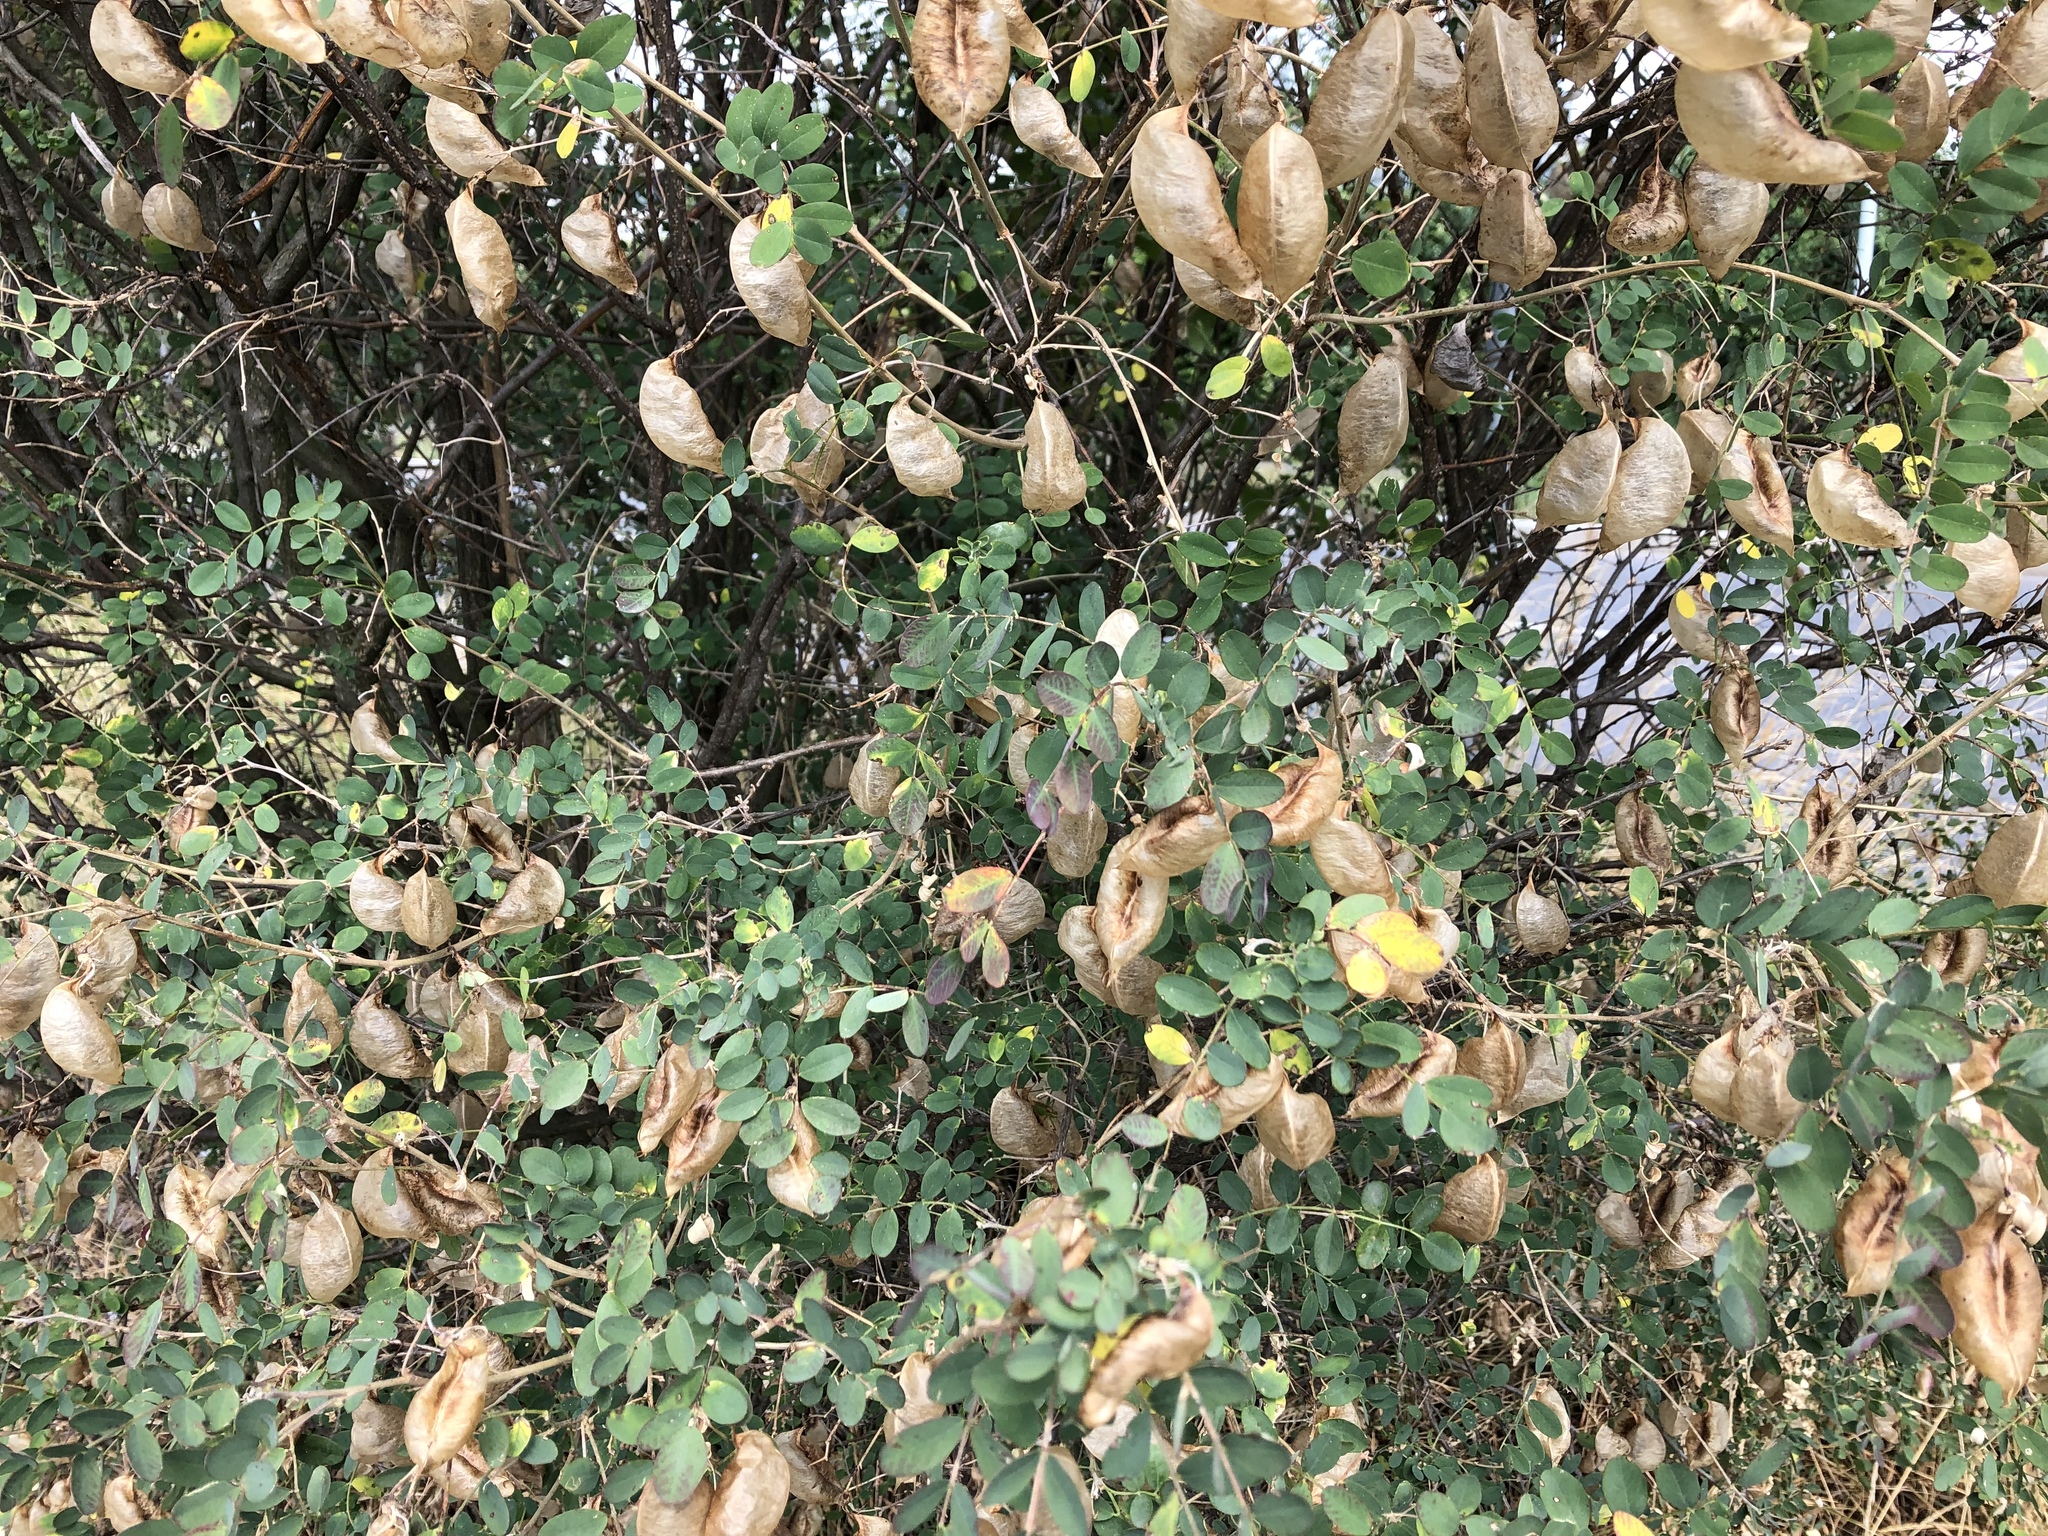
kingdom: Plantae
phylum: Tracheophyta
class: Magnoliopsida
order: Fabales
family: Fabaceae
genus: Colutea
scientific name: Colutea arborescens
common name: Bladder-senna
